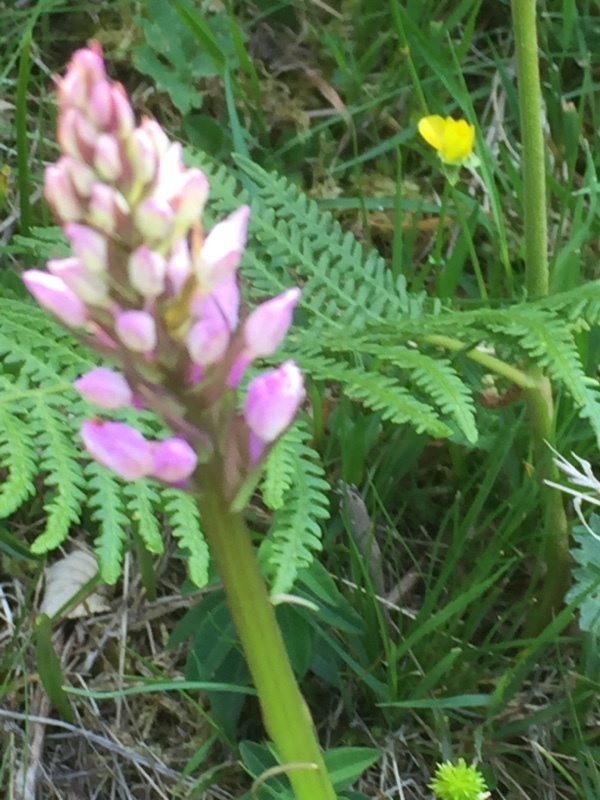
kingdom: Plantae
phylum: Tracheophyta
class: Liliopsida
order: Asparagales
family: Orchidaceae
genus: Dactylorhiza
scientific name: Dactylorhiza maculata
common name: Heath spotted-orchid
